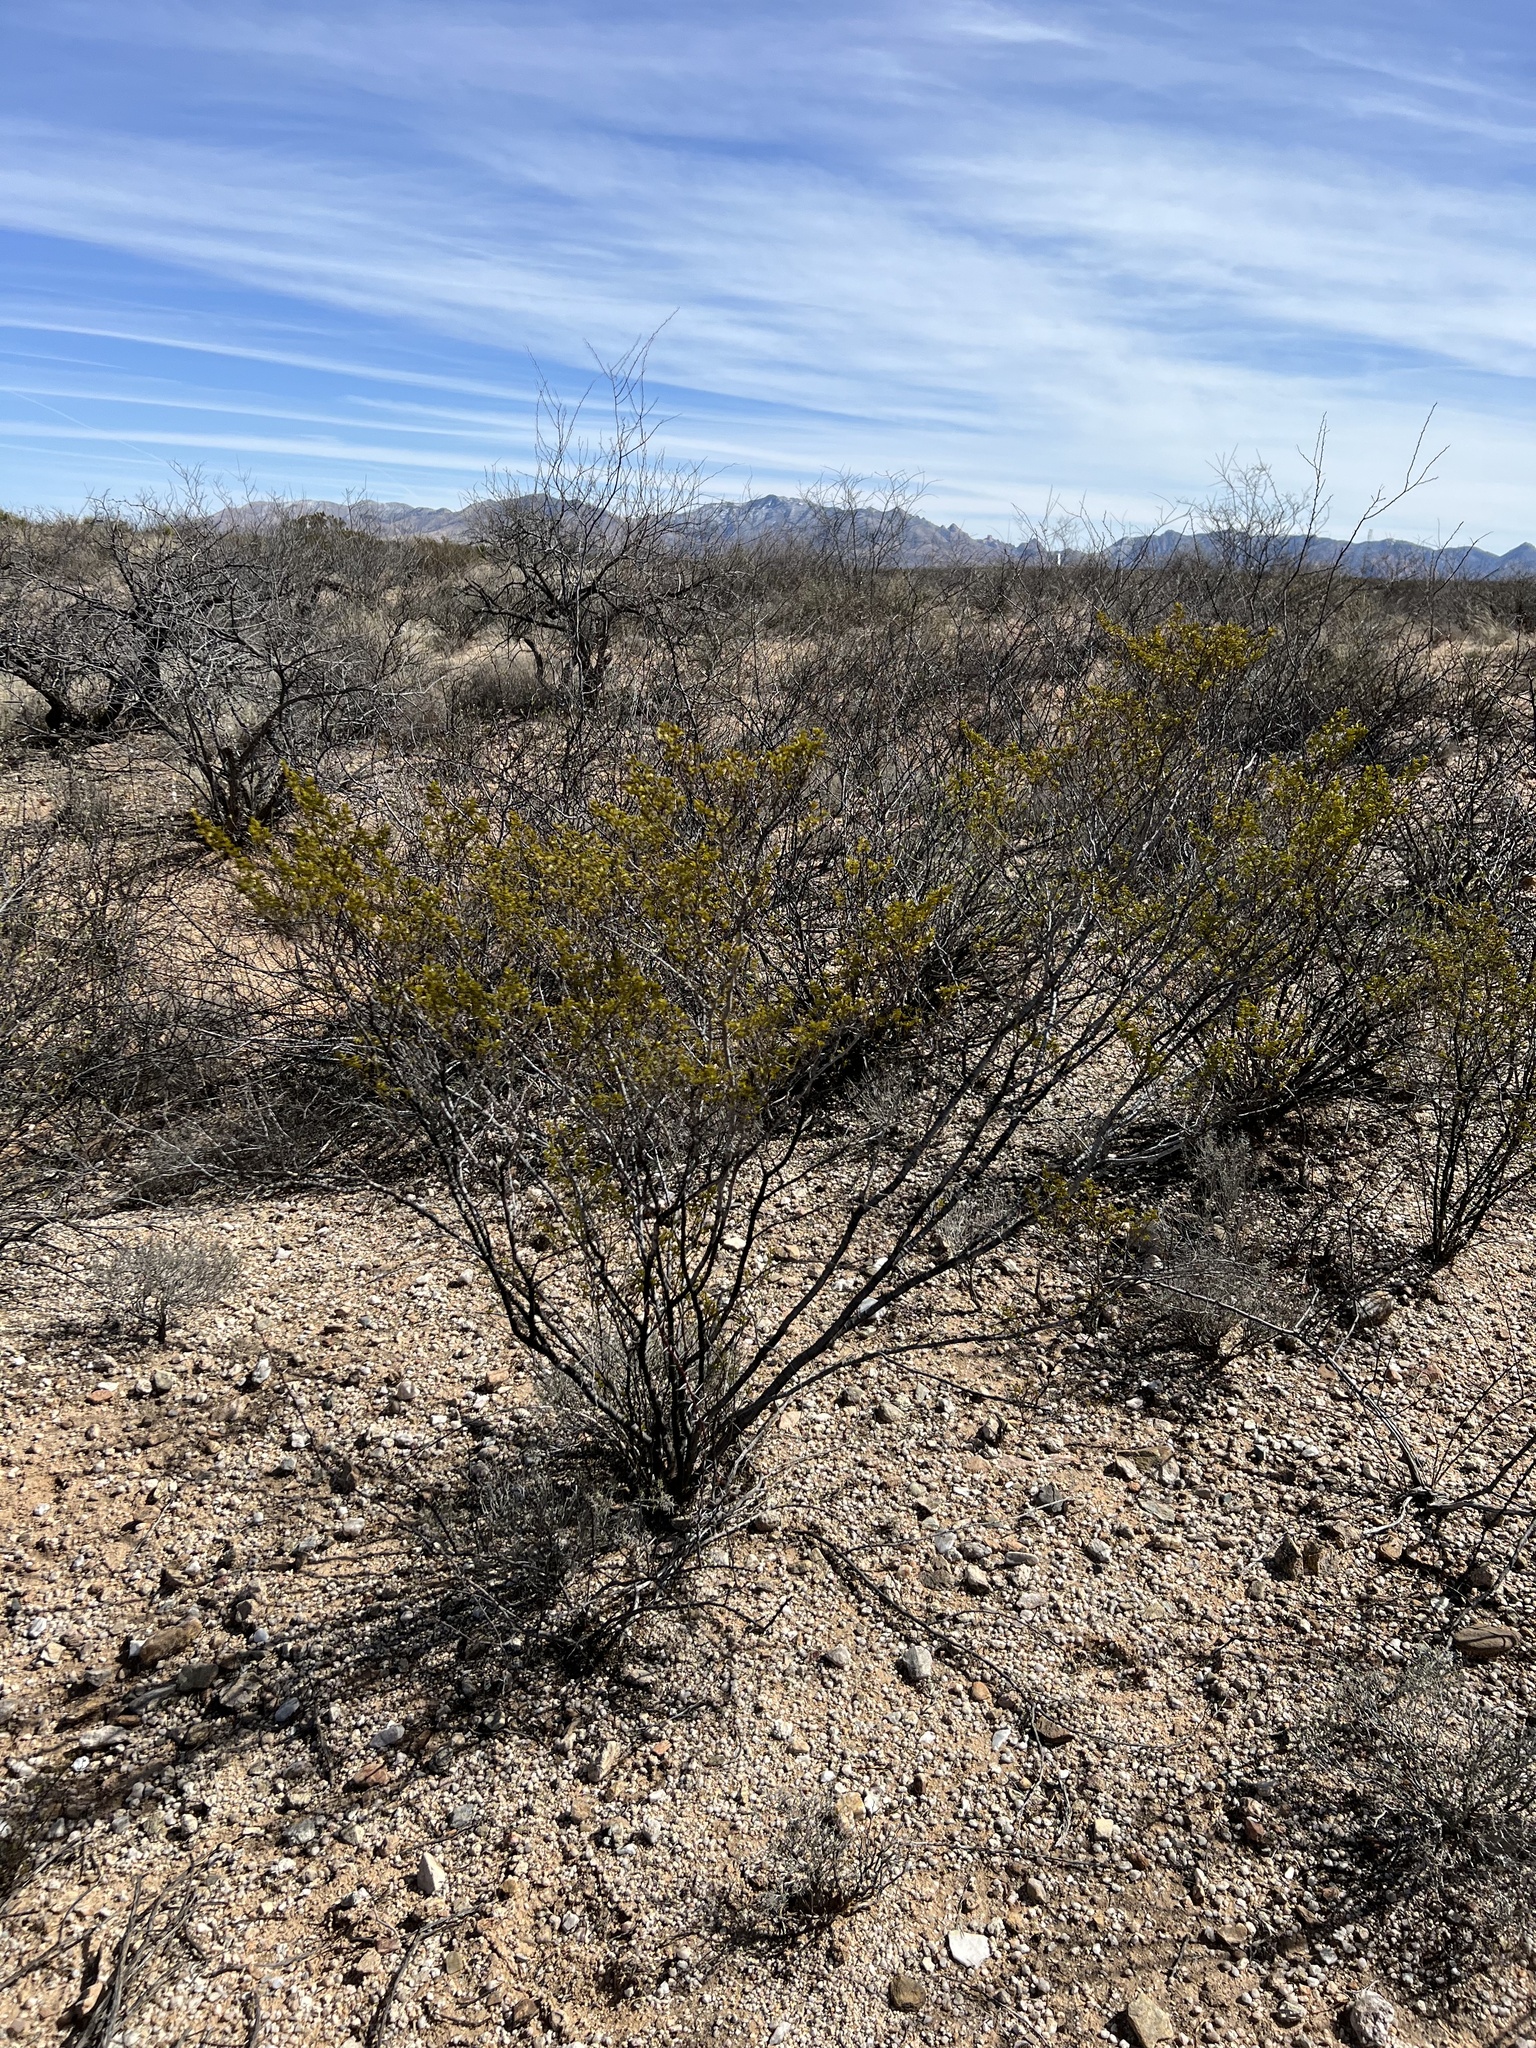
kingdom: Plantae
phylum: Tracheophyta
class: Magnoliopsida
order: Zygophyllales
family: Zygophyllaceae
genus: Larrea
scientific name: Larrea tridentata
